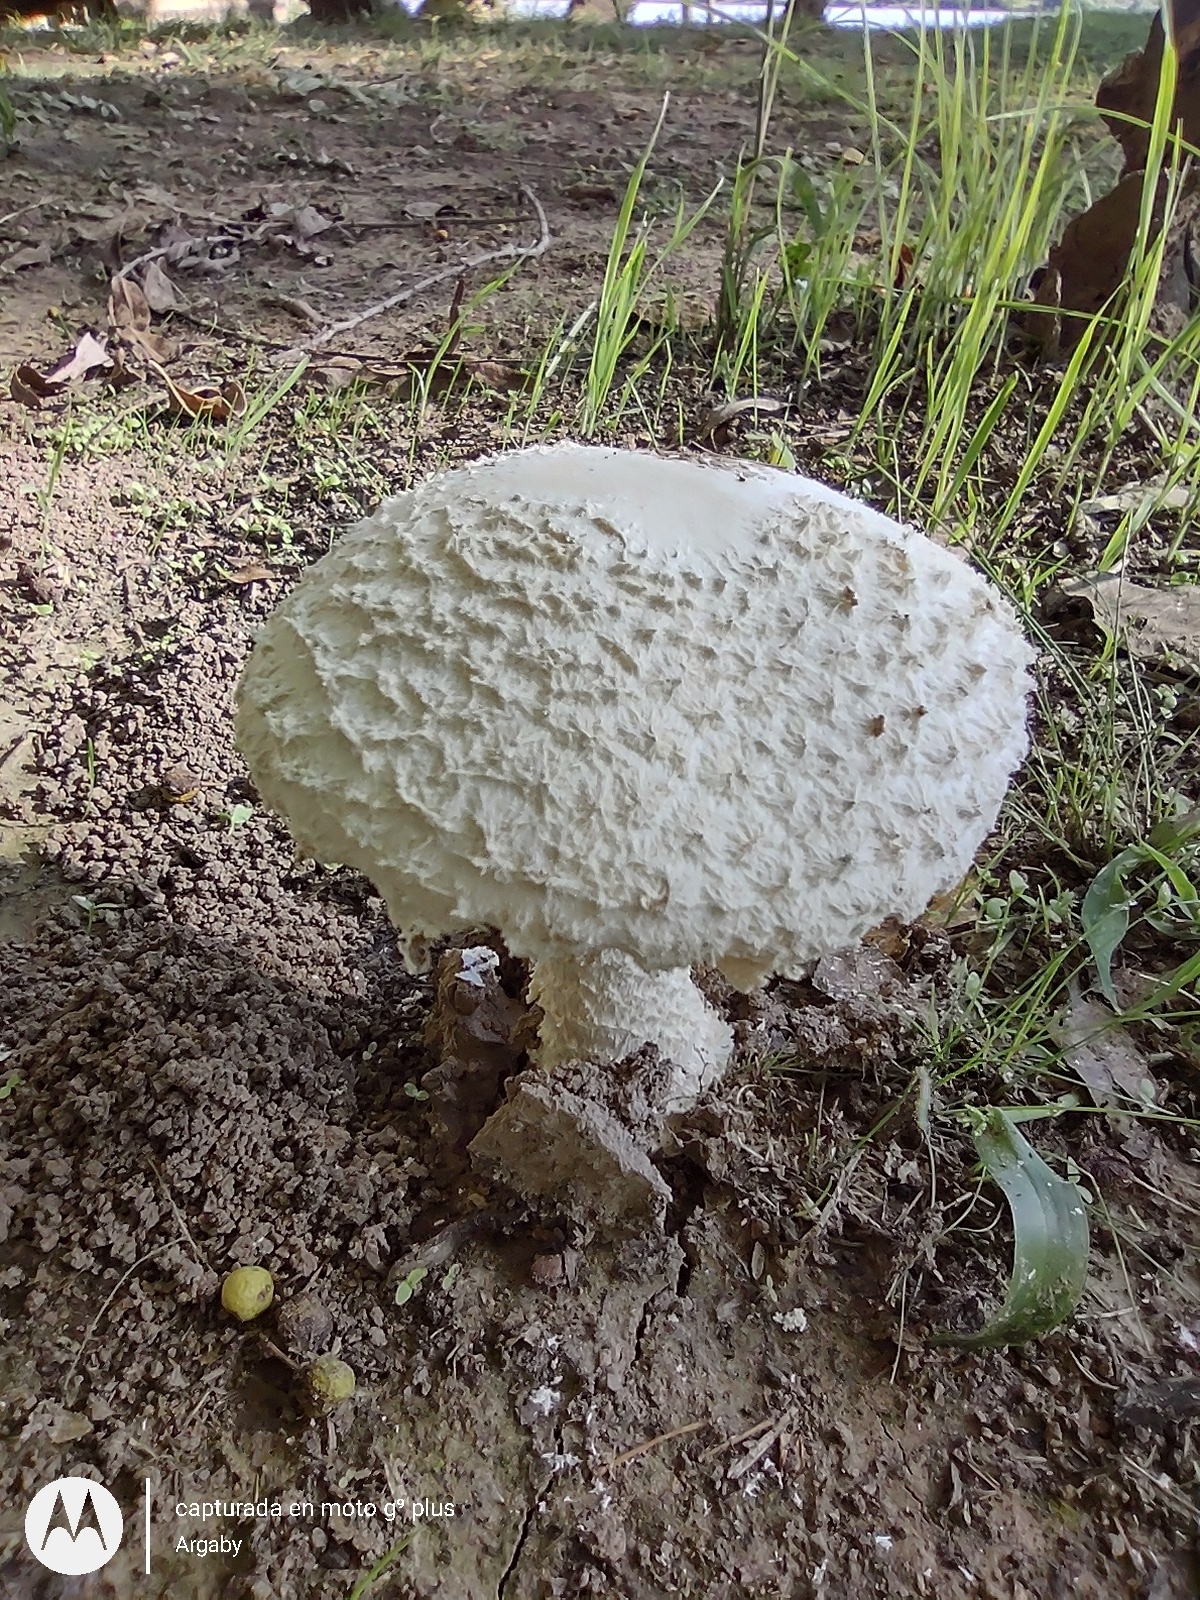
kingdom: Fungi
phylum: Basidiomycota
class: Agaricomycetes
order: Agaricales
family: Amanitaceae
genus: Aspidella
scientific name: Aspidella foetens
